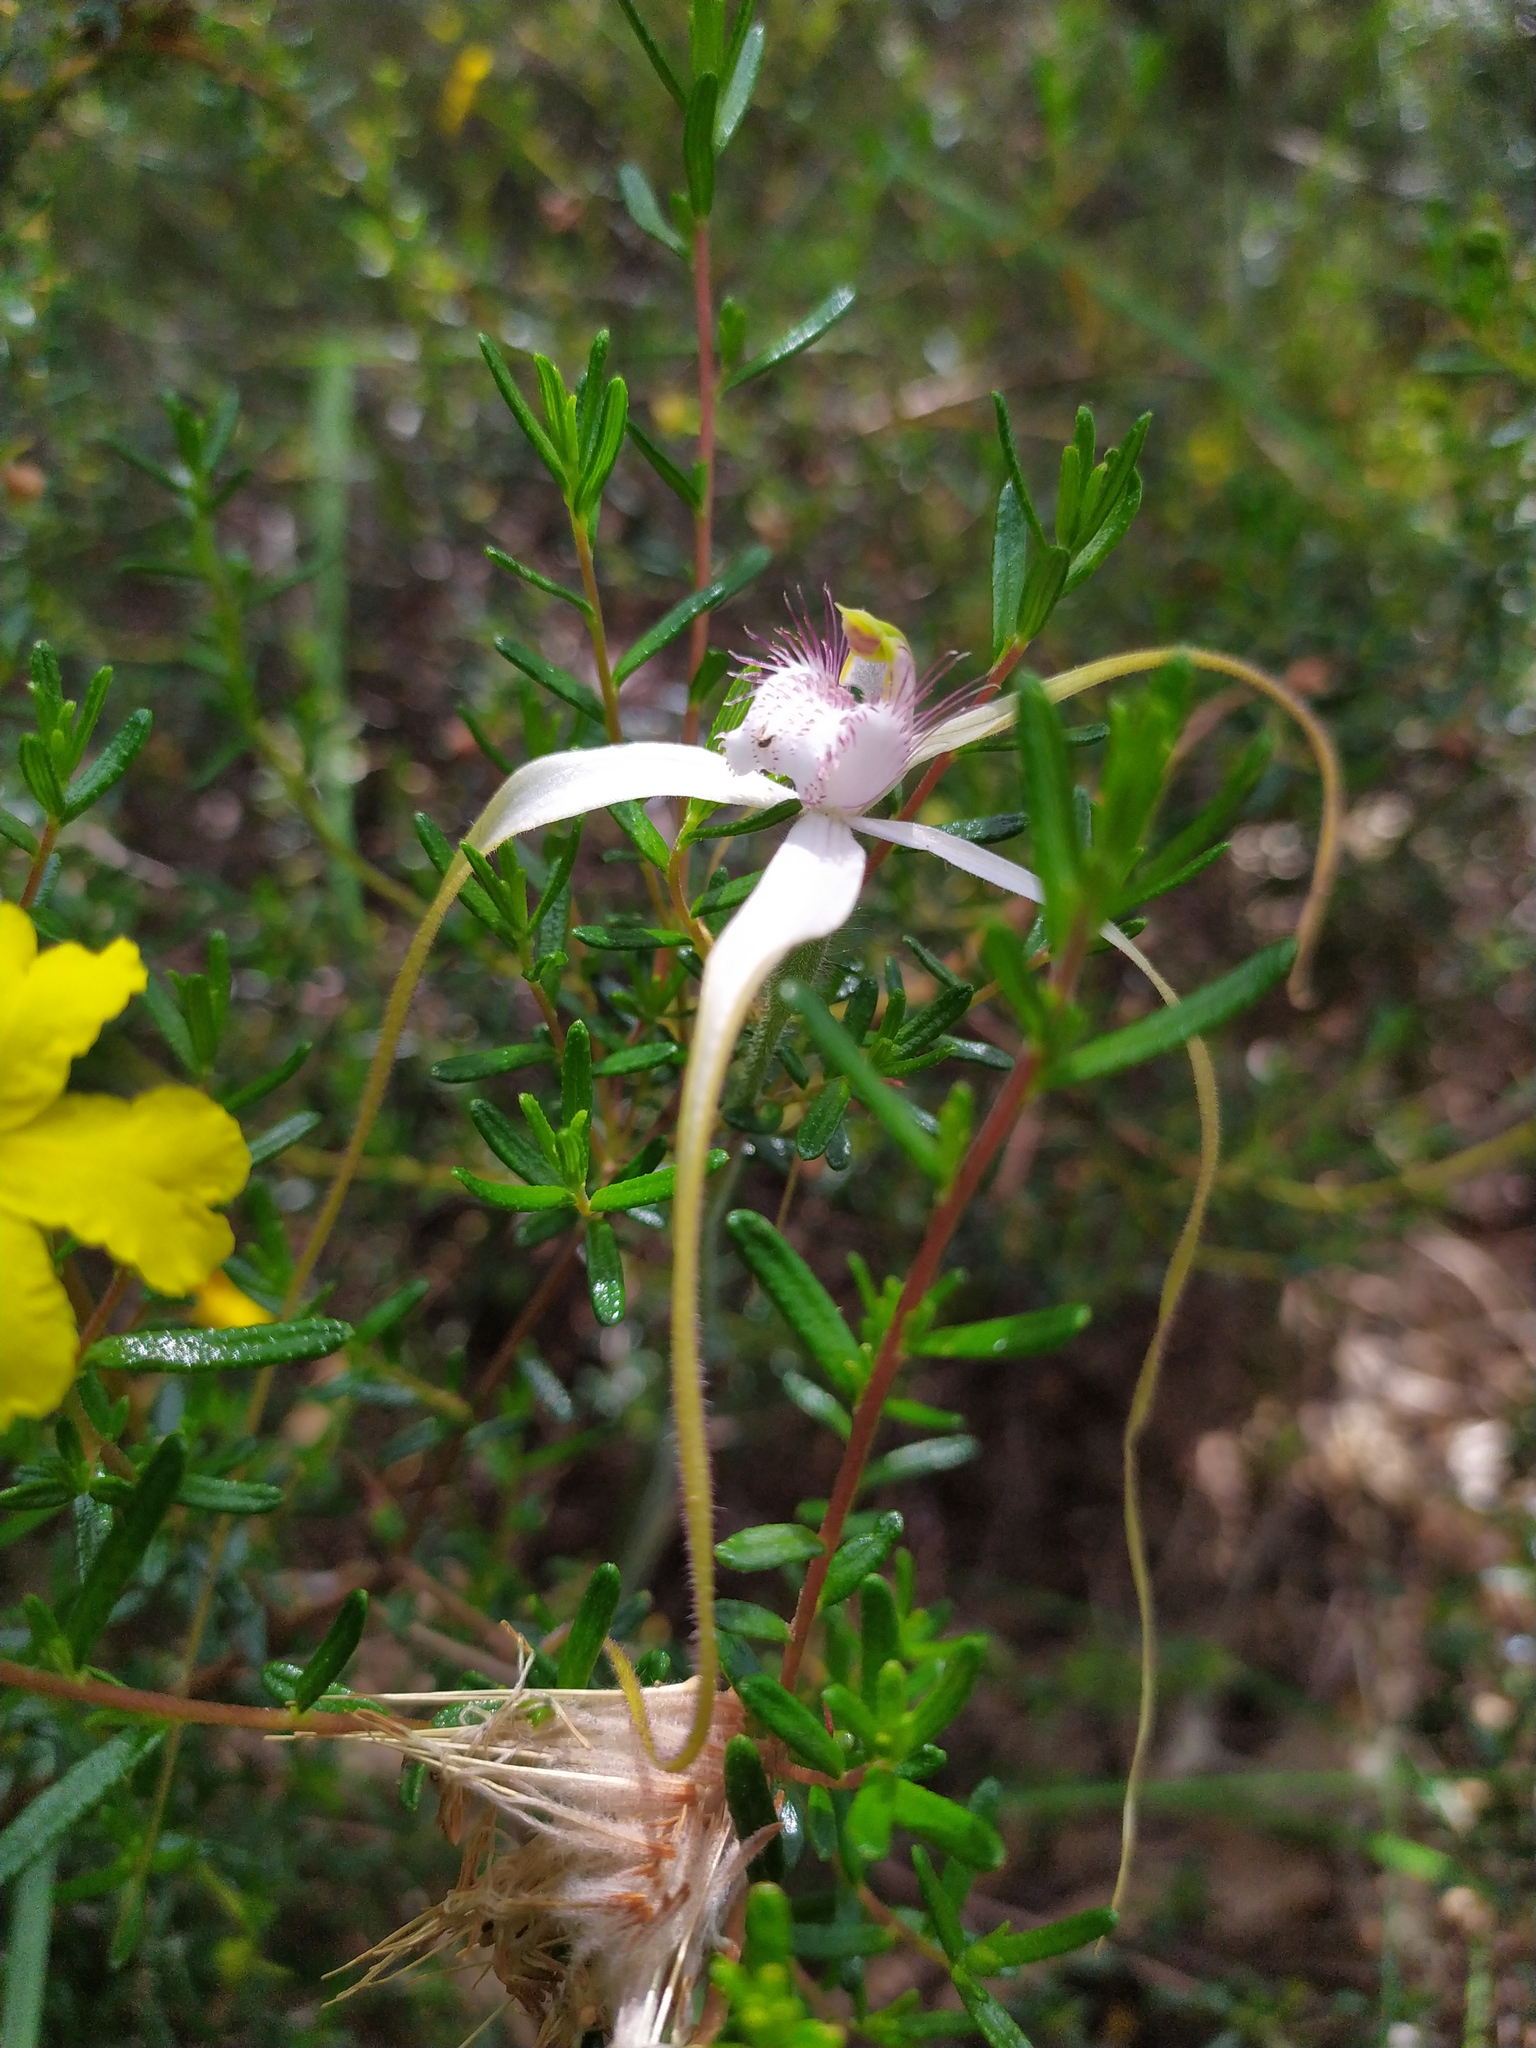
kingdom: Plantae
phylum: Tracheophyta
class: Liliopsida
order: Asparagales
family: Orchidaceae
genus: Caladenia
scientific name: Caladenia longicauda
